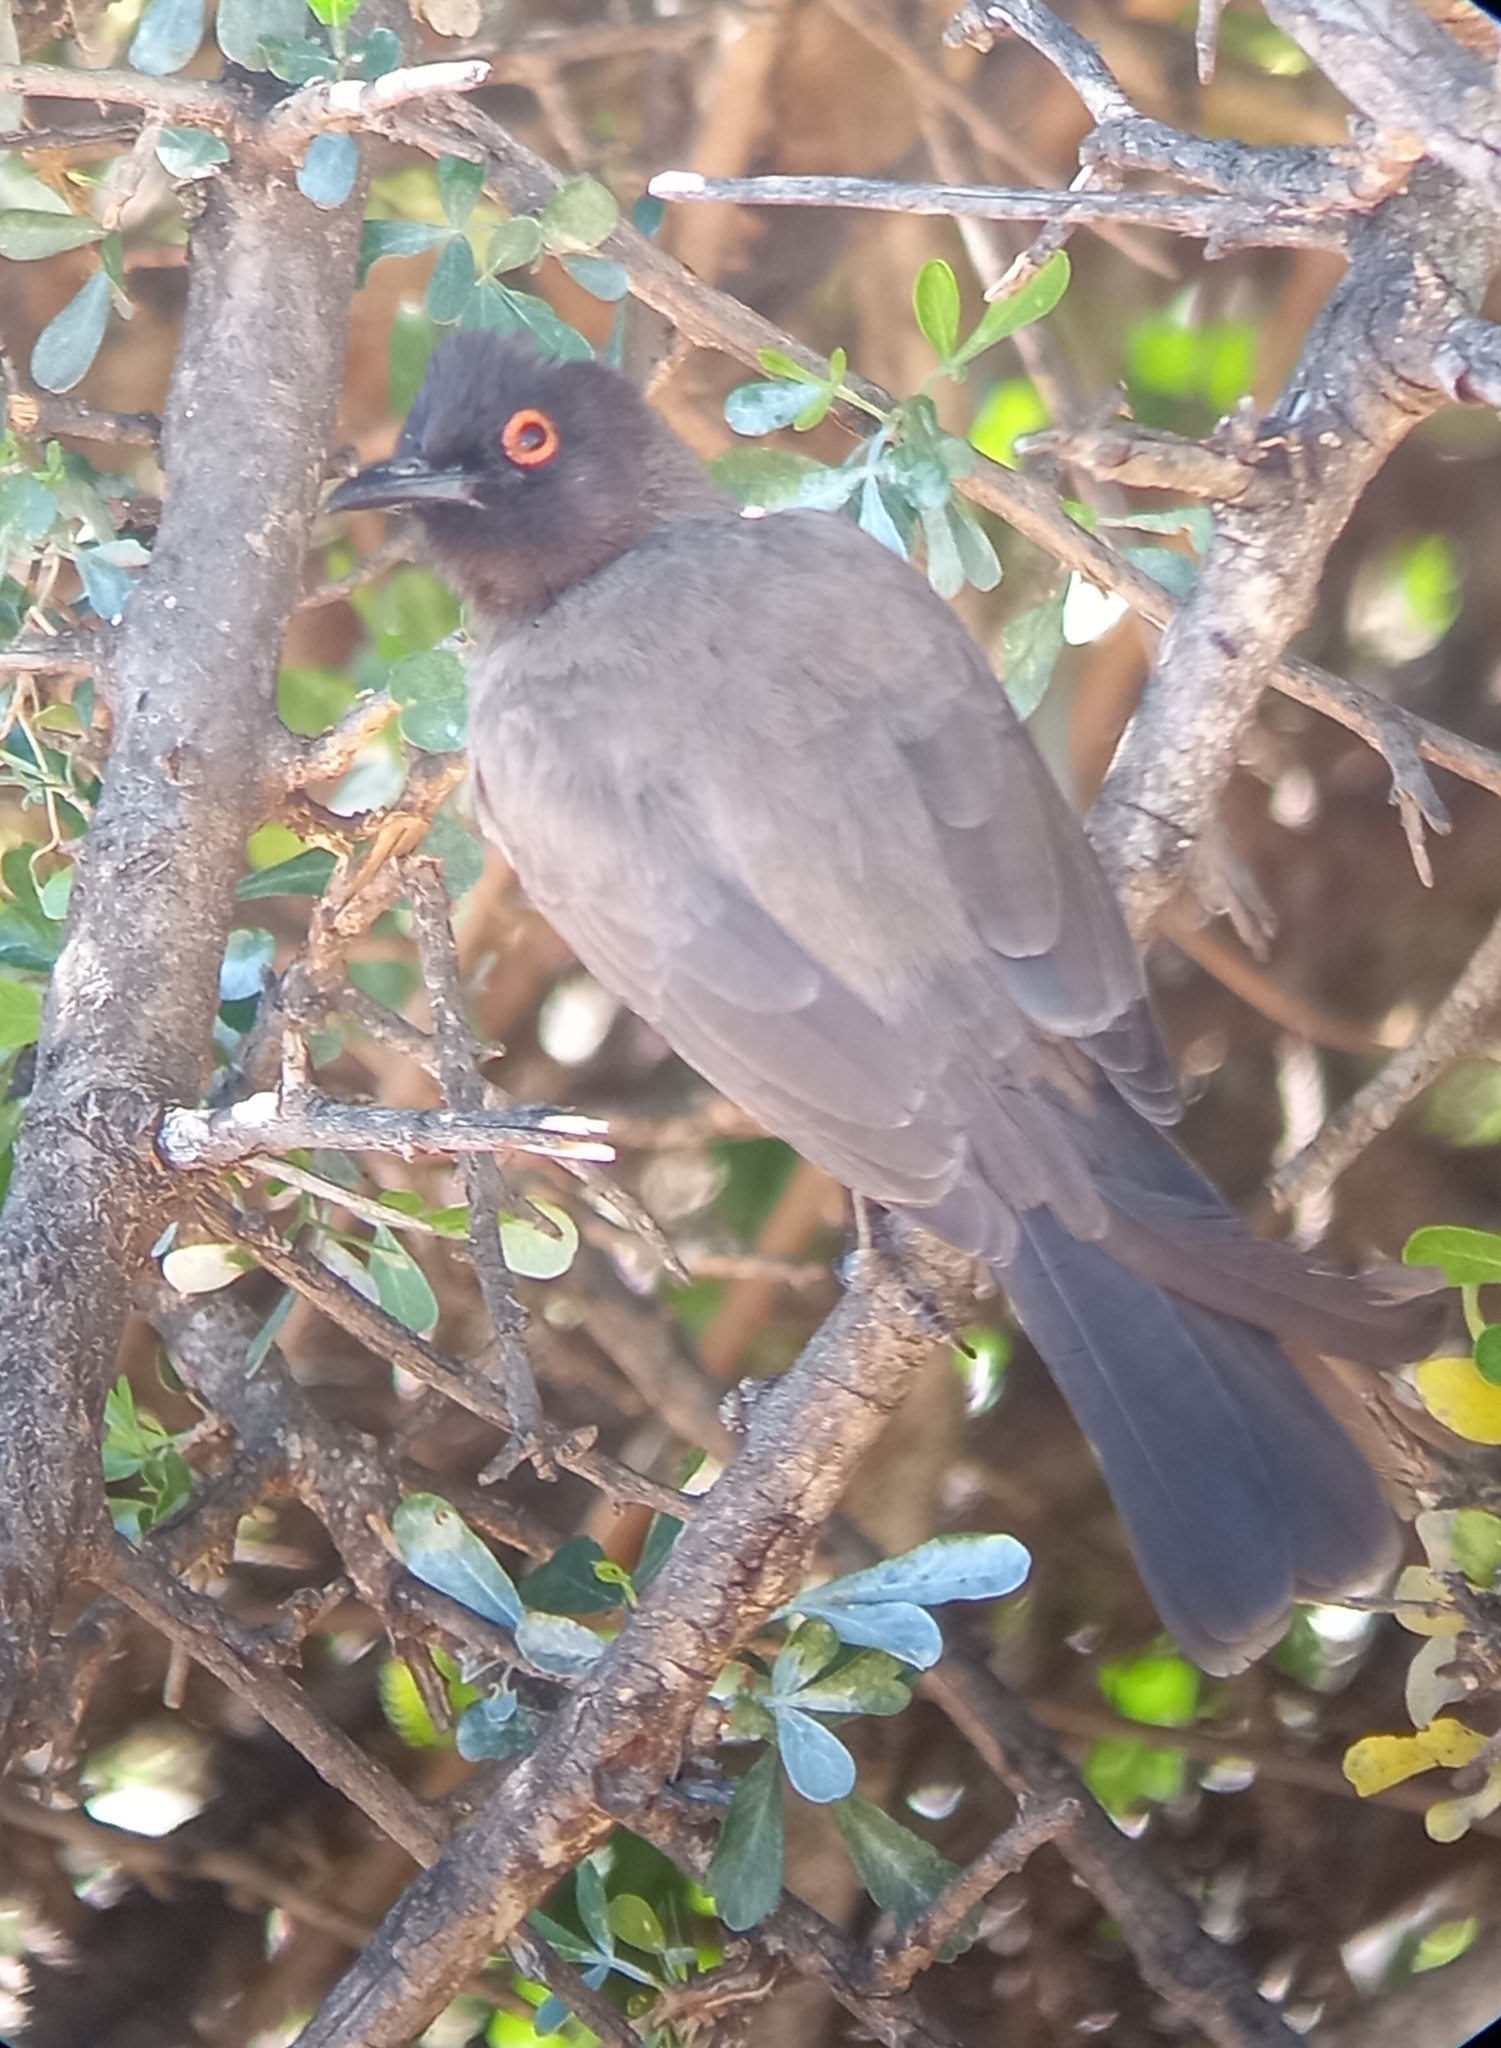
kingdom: Animalia
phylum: Chordata
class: Aves
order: Passeriformes
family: Pycnonotidae
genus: Pycnonotus
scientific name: Pycnonotus nigricans
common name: African red-eyed bulbul
